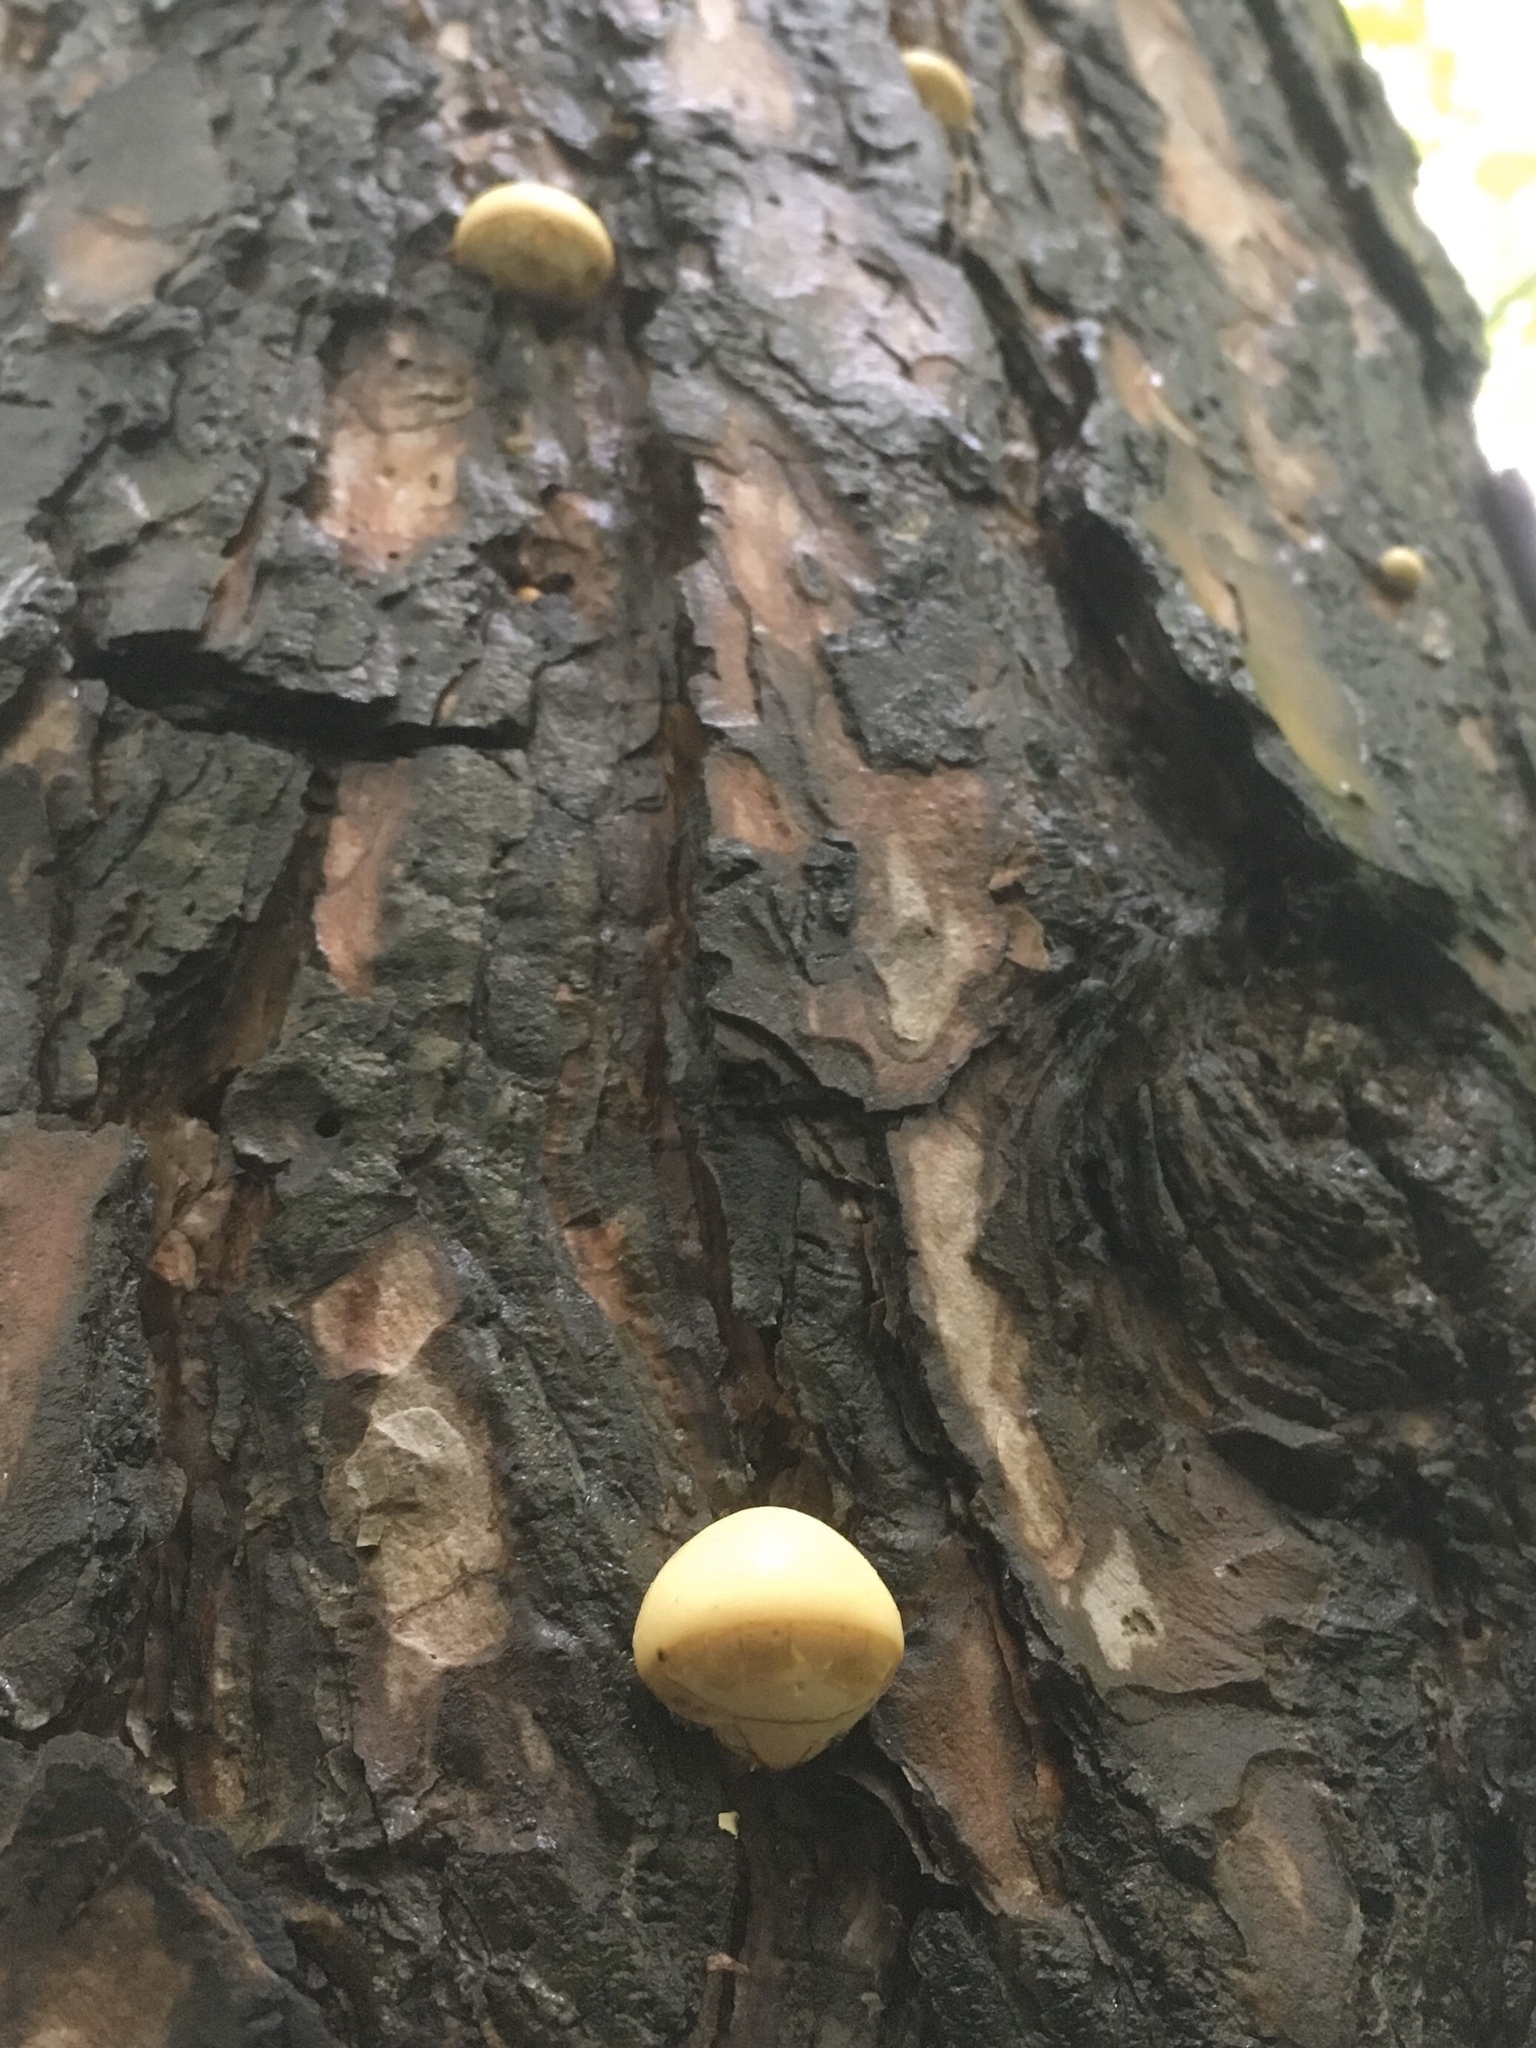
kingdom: Fungi
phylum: Basidiomycota
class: Agaricomycetes
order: Polyporales
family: Polyporaceae
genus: Cryptoporus
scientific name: Cryptoporus volvatus
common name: Veiled polypore
